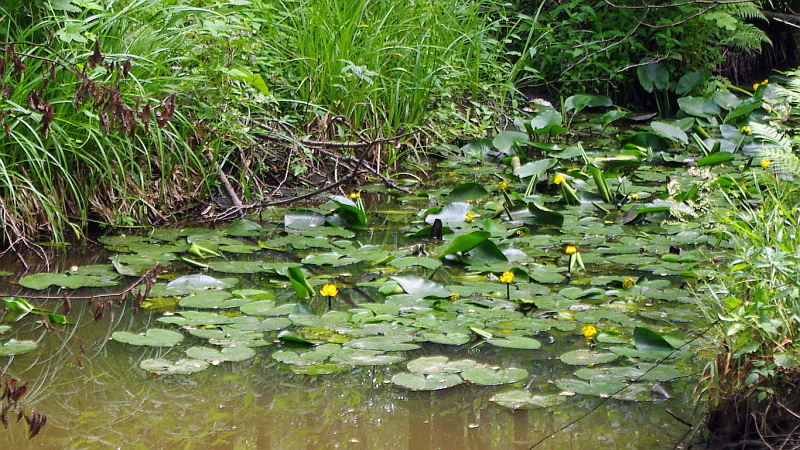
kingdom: Plantae
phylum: Tracheophyta
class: Magnoliopsida
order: Nymphaeales
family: Nymphaeaceae
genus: Nuphar
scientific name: Nuphar lutea
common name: Yellow water-lily
